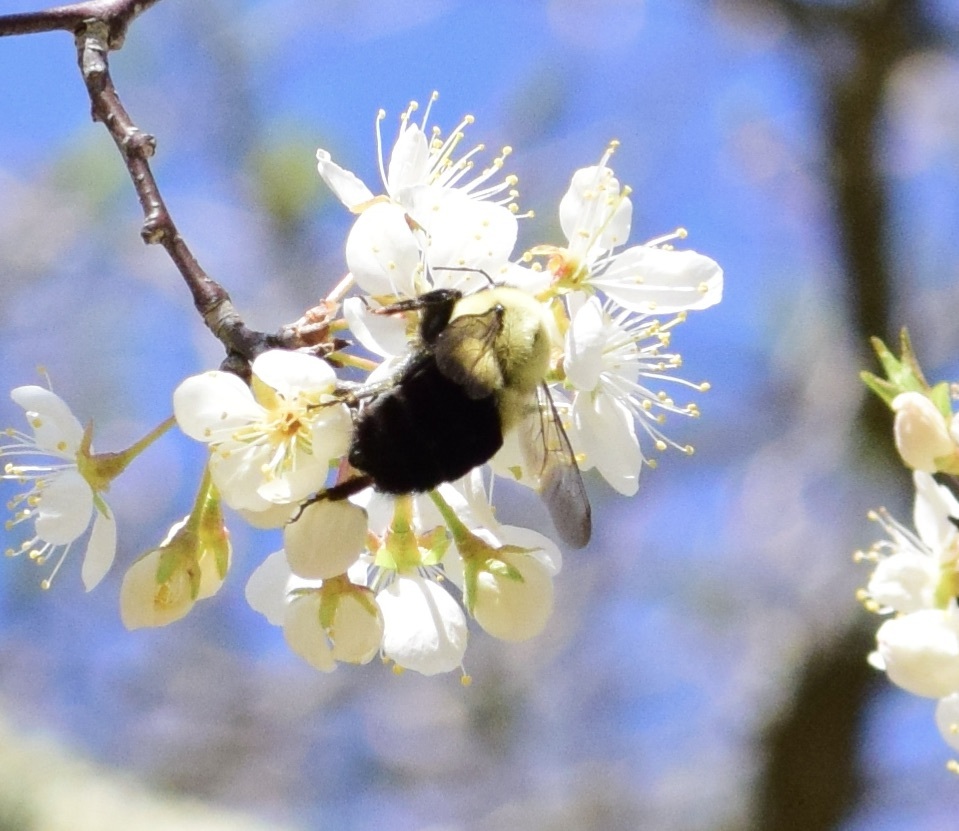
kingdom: Animalia
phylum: Arthropoda
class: Insecta
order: Hymenoptera
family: Apidae
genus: Bombus
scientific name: Bombus impatiens
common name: Common eastern bumble bee
